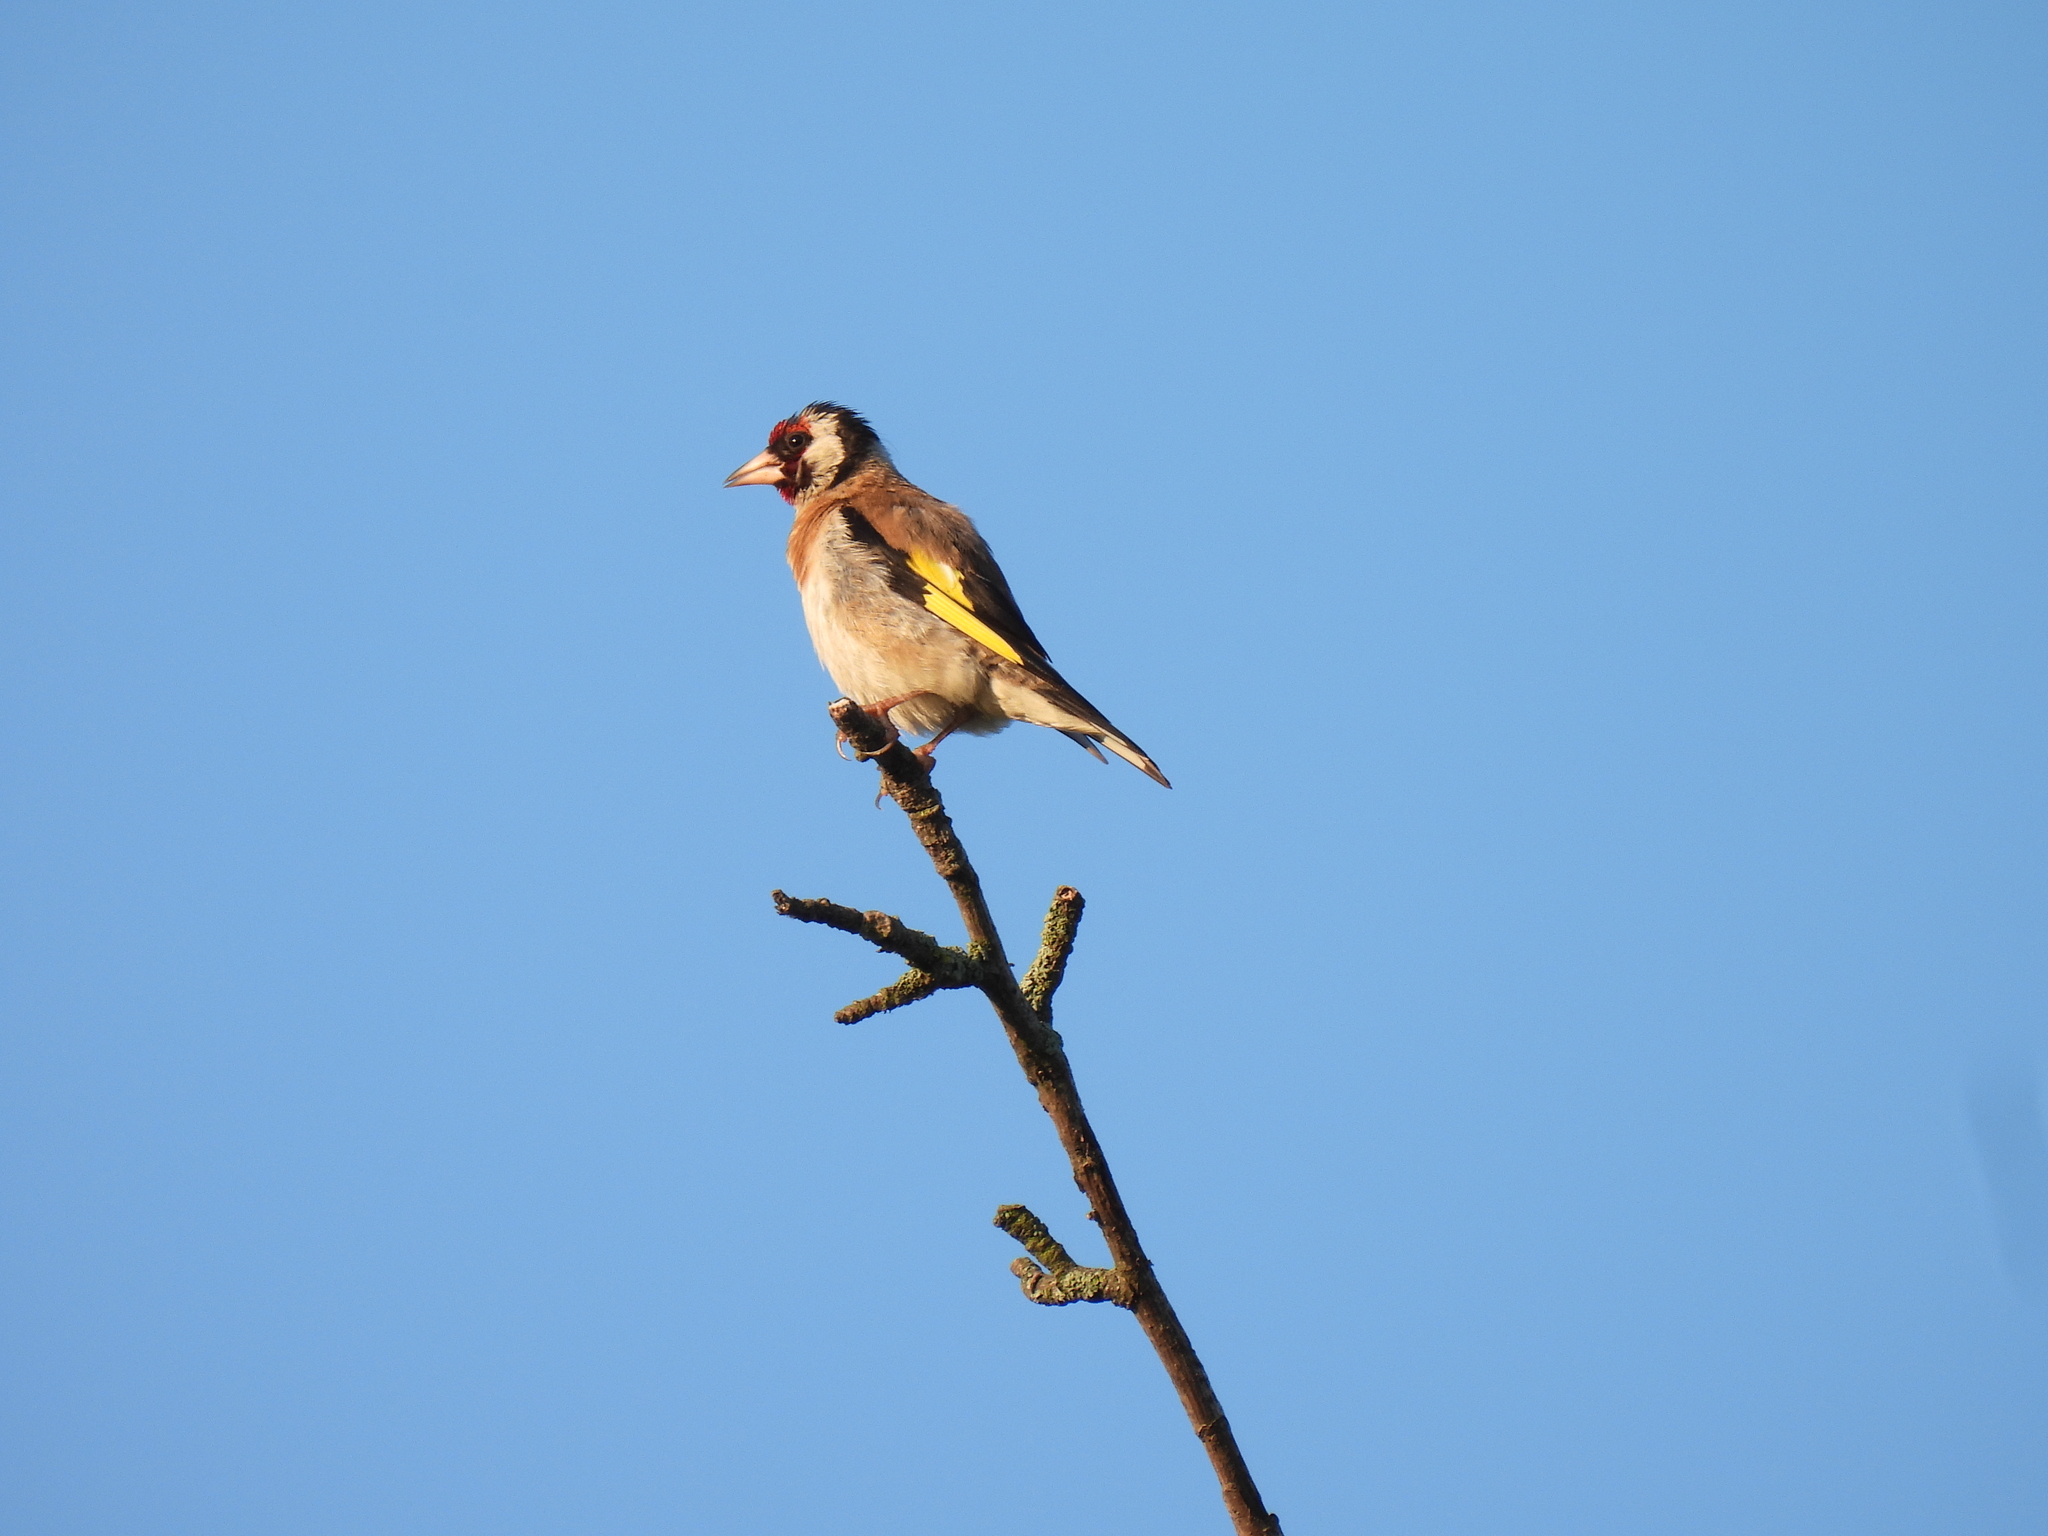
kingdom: Animalia
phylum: Chordata
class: Aves
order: Passeriformes
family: Fringillidae
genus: Carduelis
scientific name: Carduelis carduelis
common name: European goldfinch
